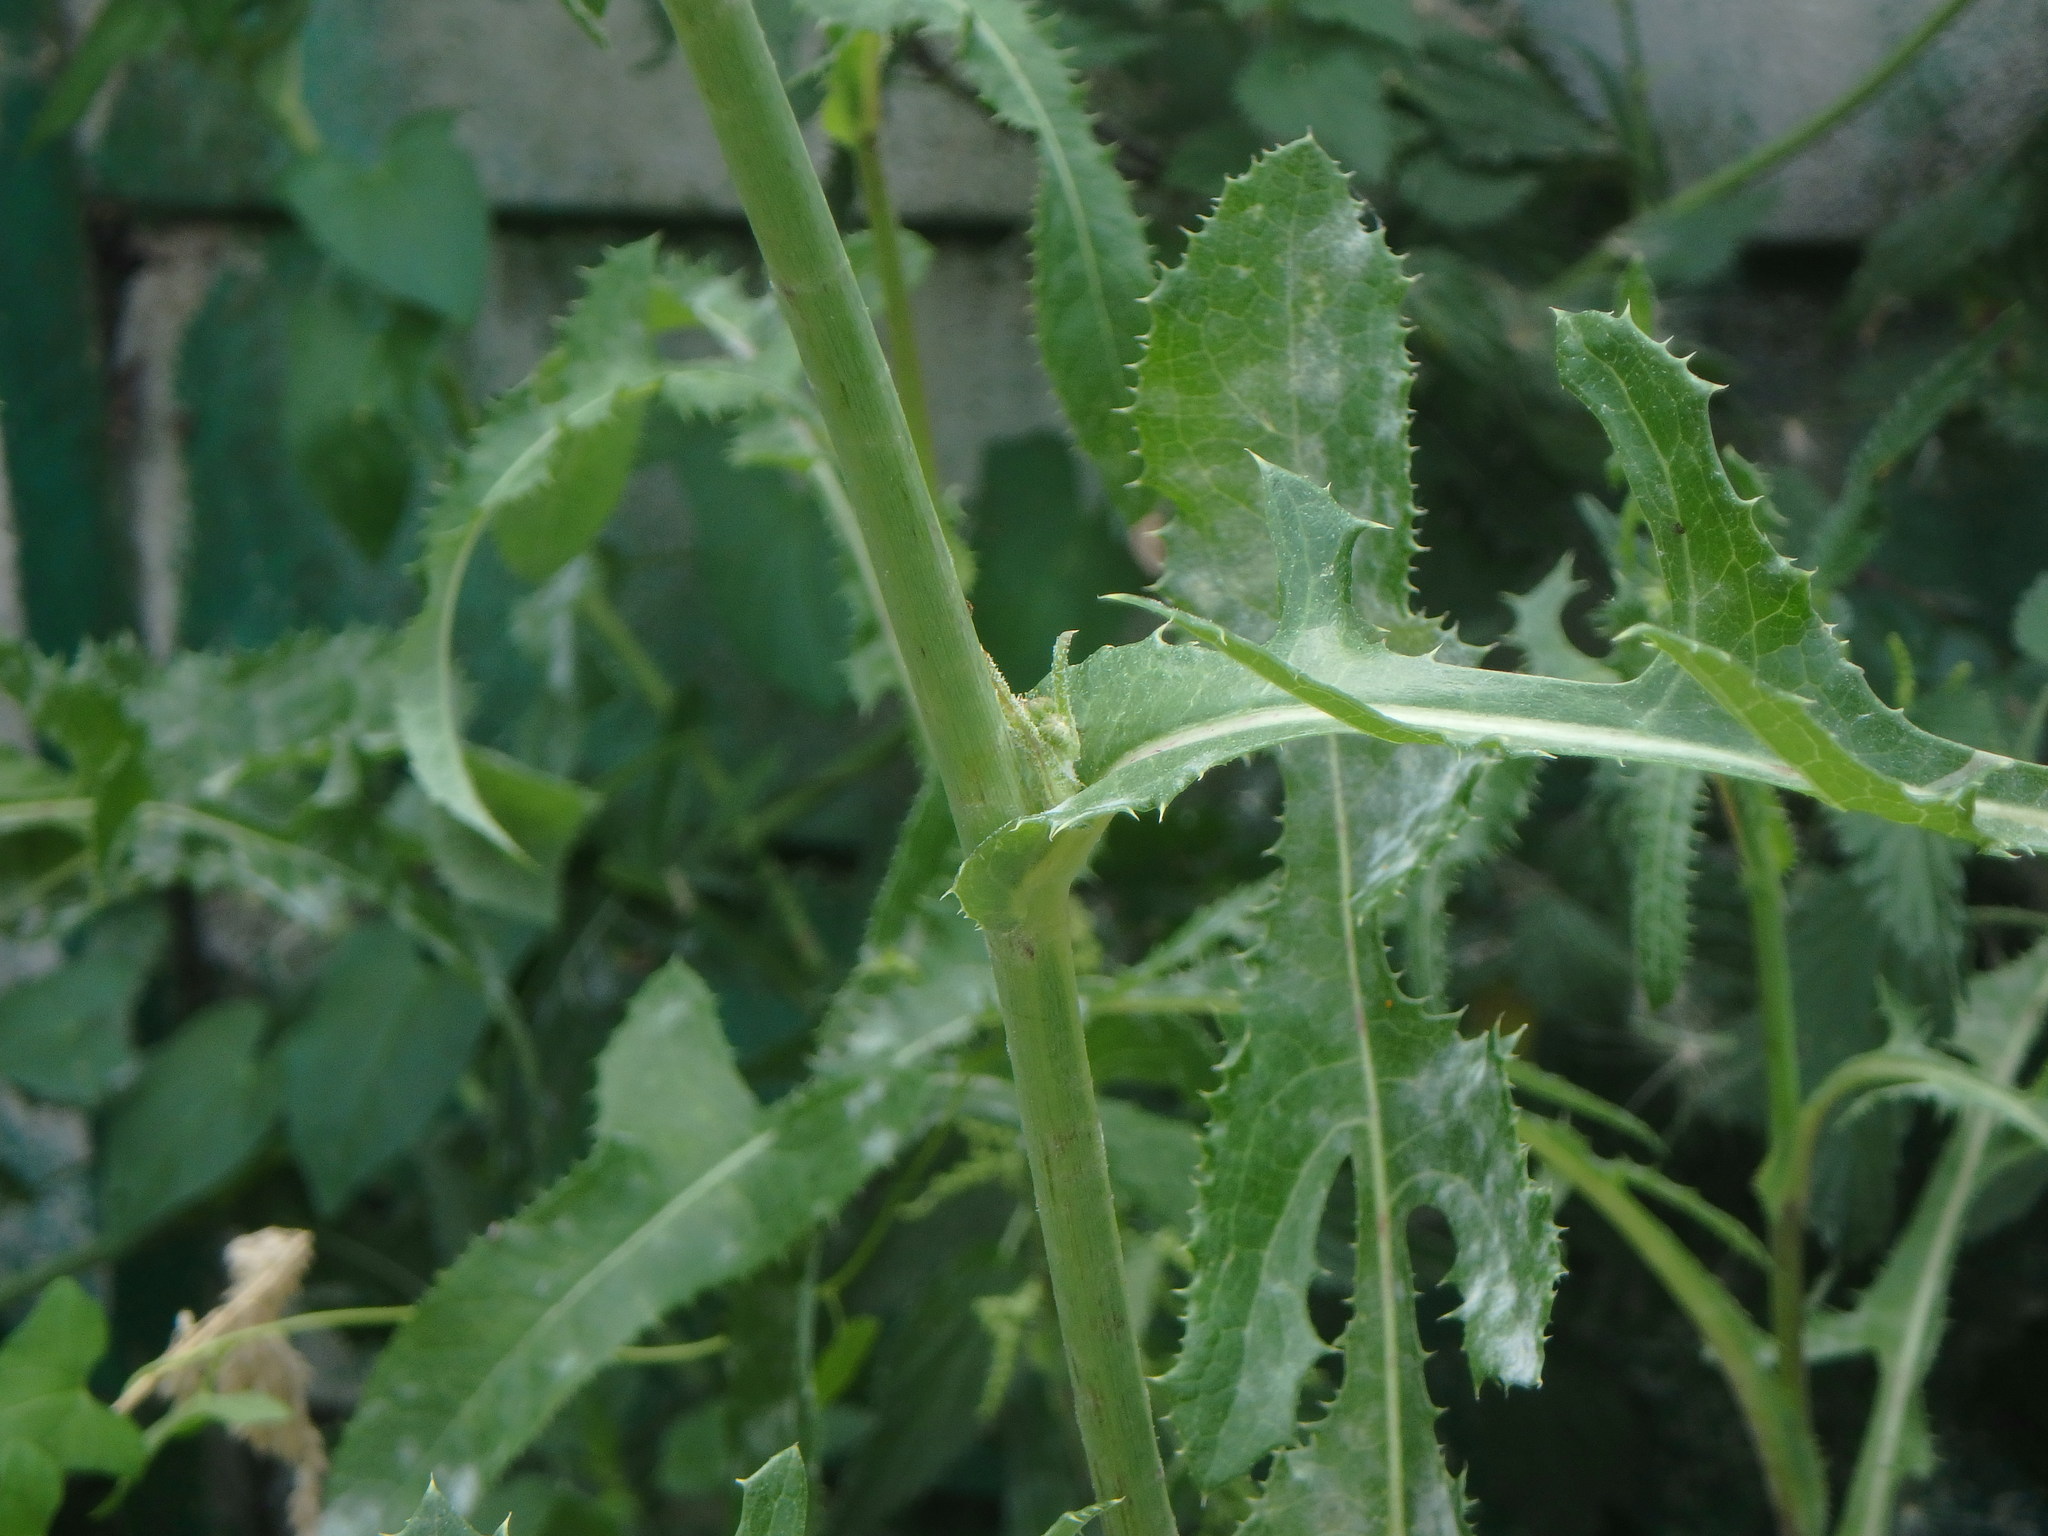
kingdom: Plantae
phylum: Tracheophyta
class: Magnoliopsida
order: Asterales
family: Asteraceae
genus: Sonchus
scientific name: Sonchus arvensis
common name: Perennial sow-thistle
